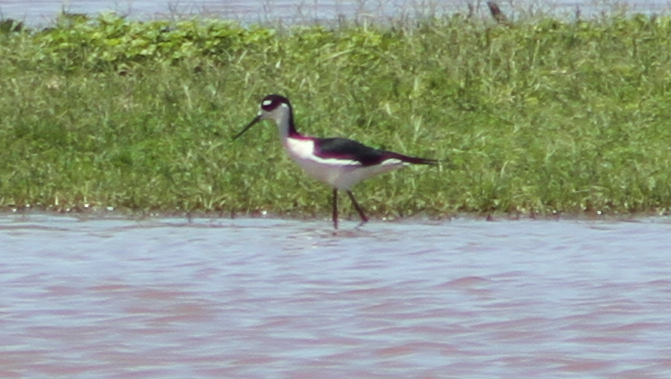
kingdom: Animalia
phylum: Chordata
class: Aves
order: Charadriiformes
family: Recurvirostridae
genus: Himantopus
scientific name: Himantopus mexicanus
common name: Black-necked stilt
